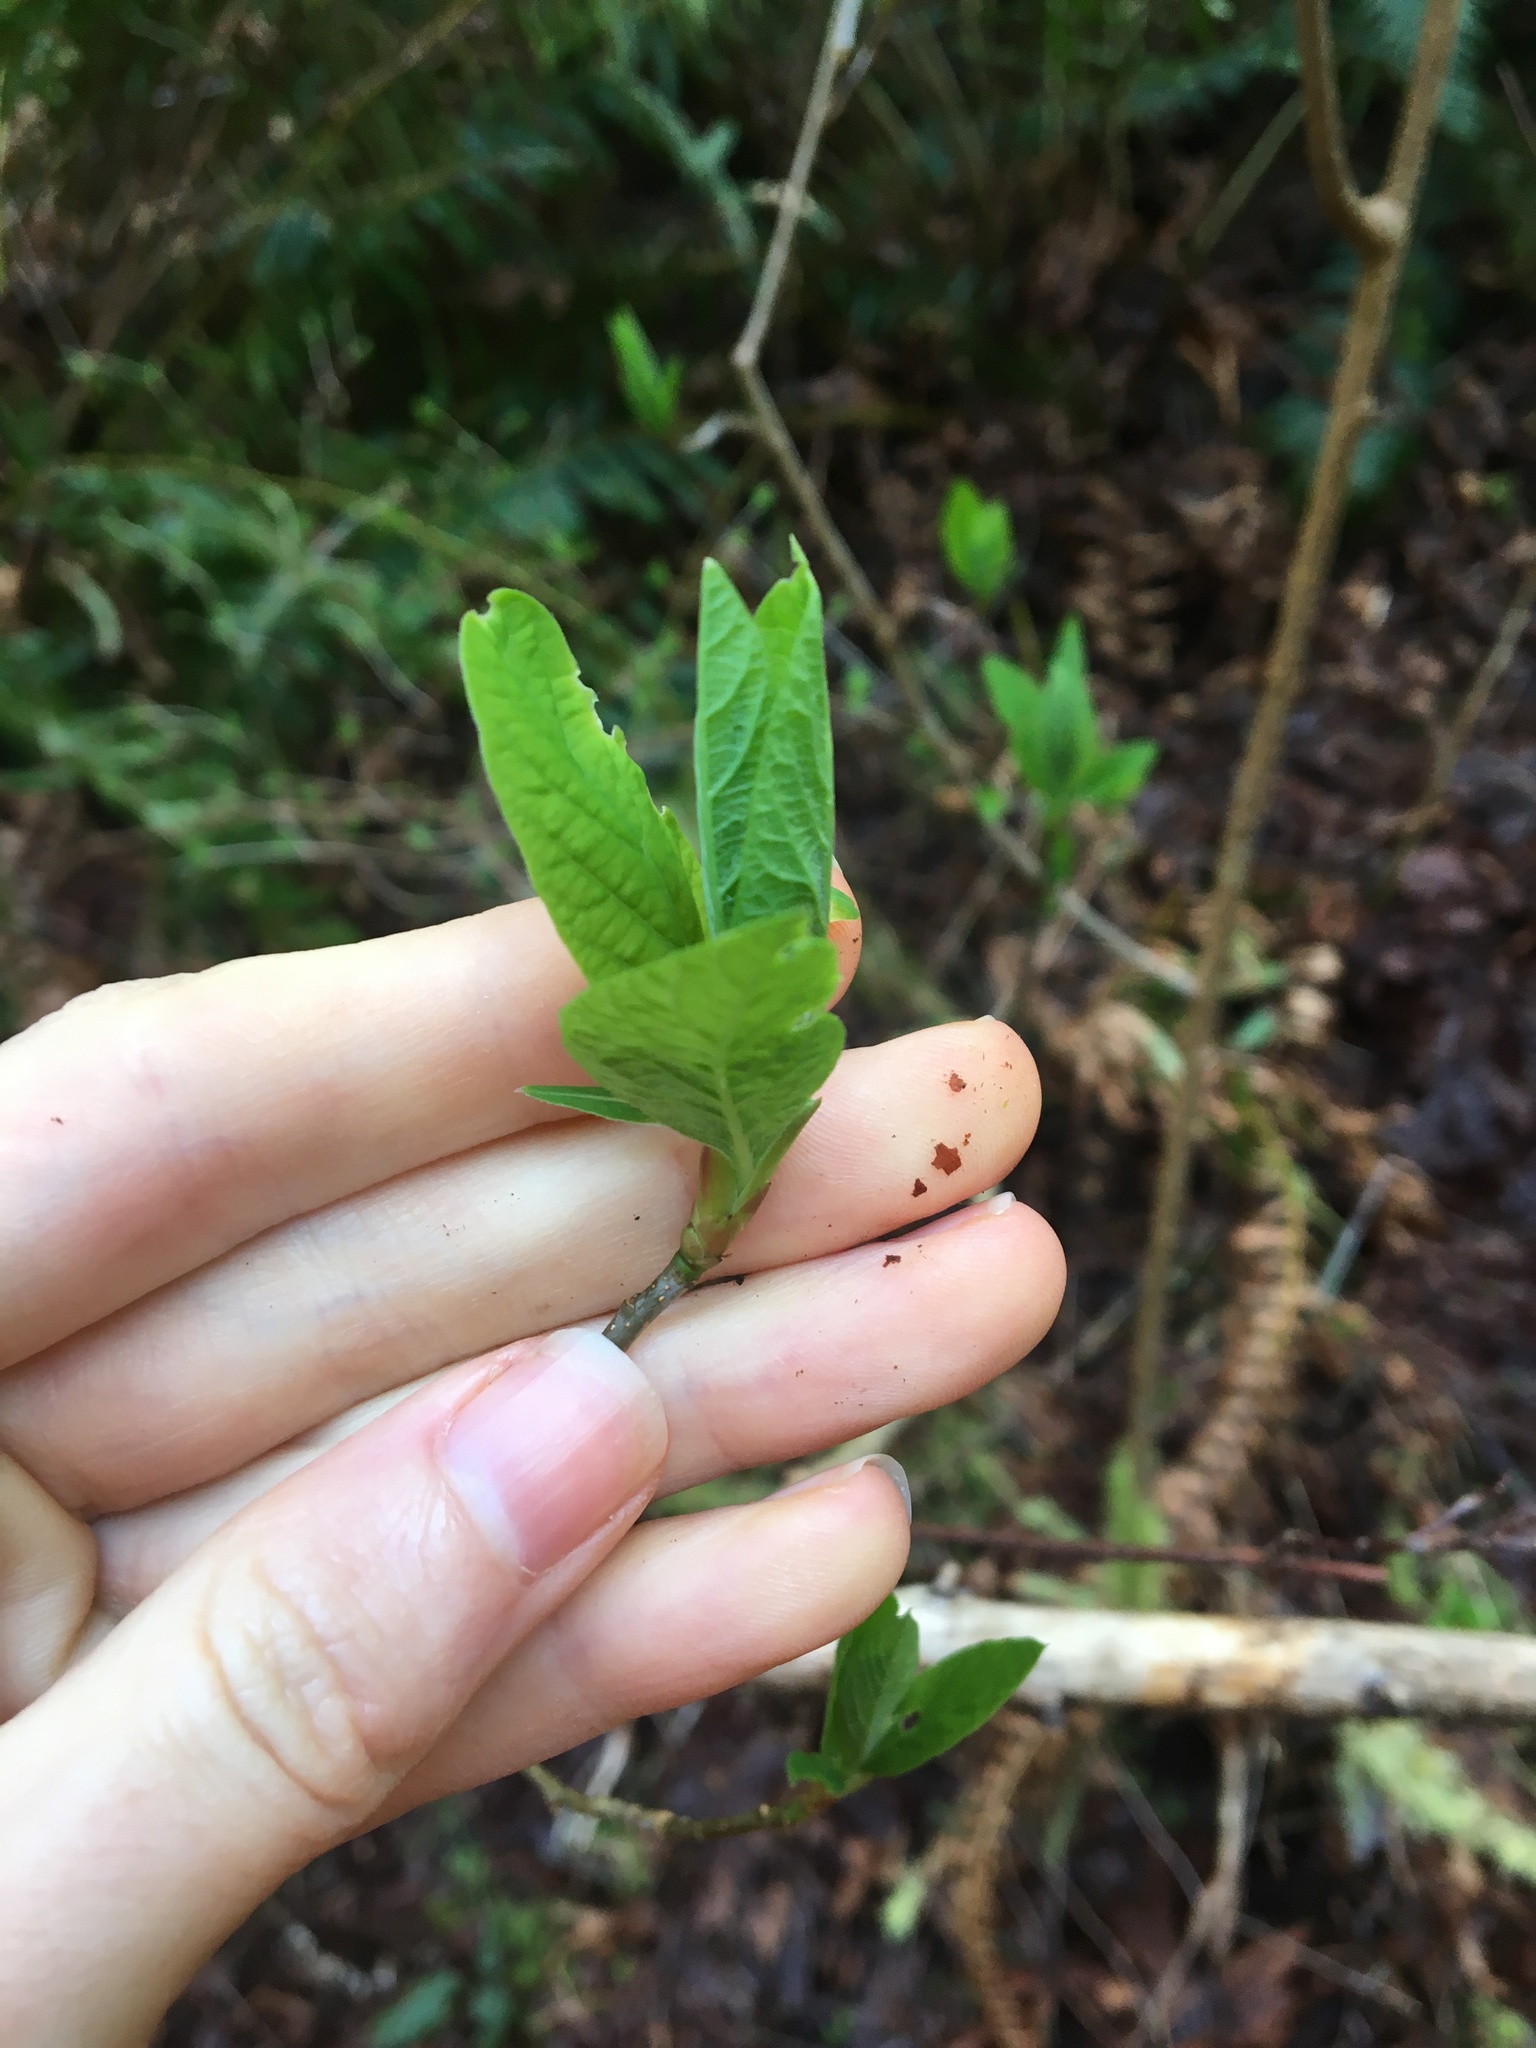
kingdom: Plantae
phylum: Tracheophyta
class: Magnoliopsida
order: Rosales
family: Rosaceae
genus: Oemleria
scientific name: Oemleria cerasiformis
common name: Osoberry
